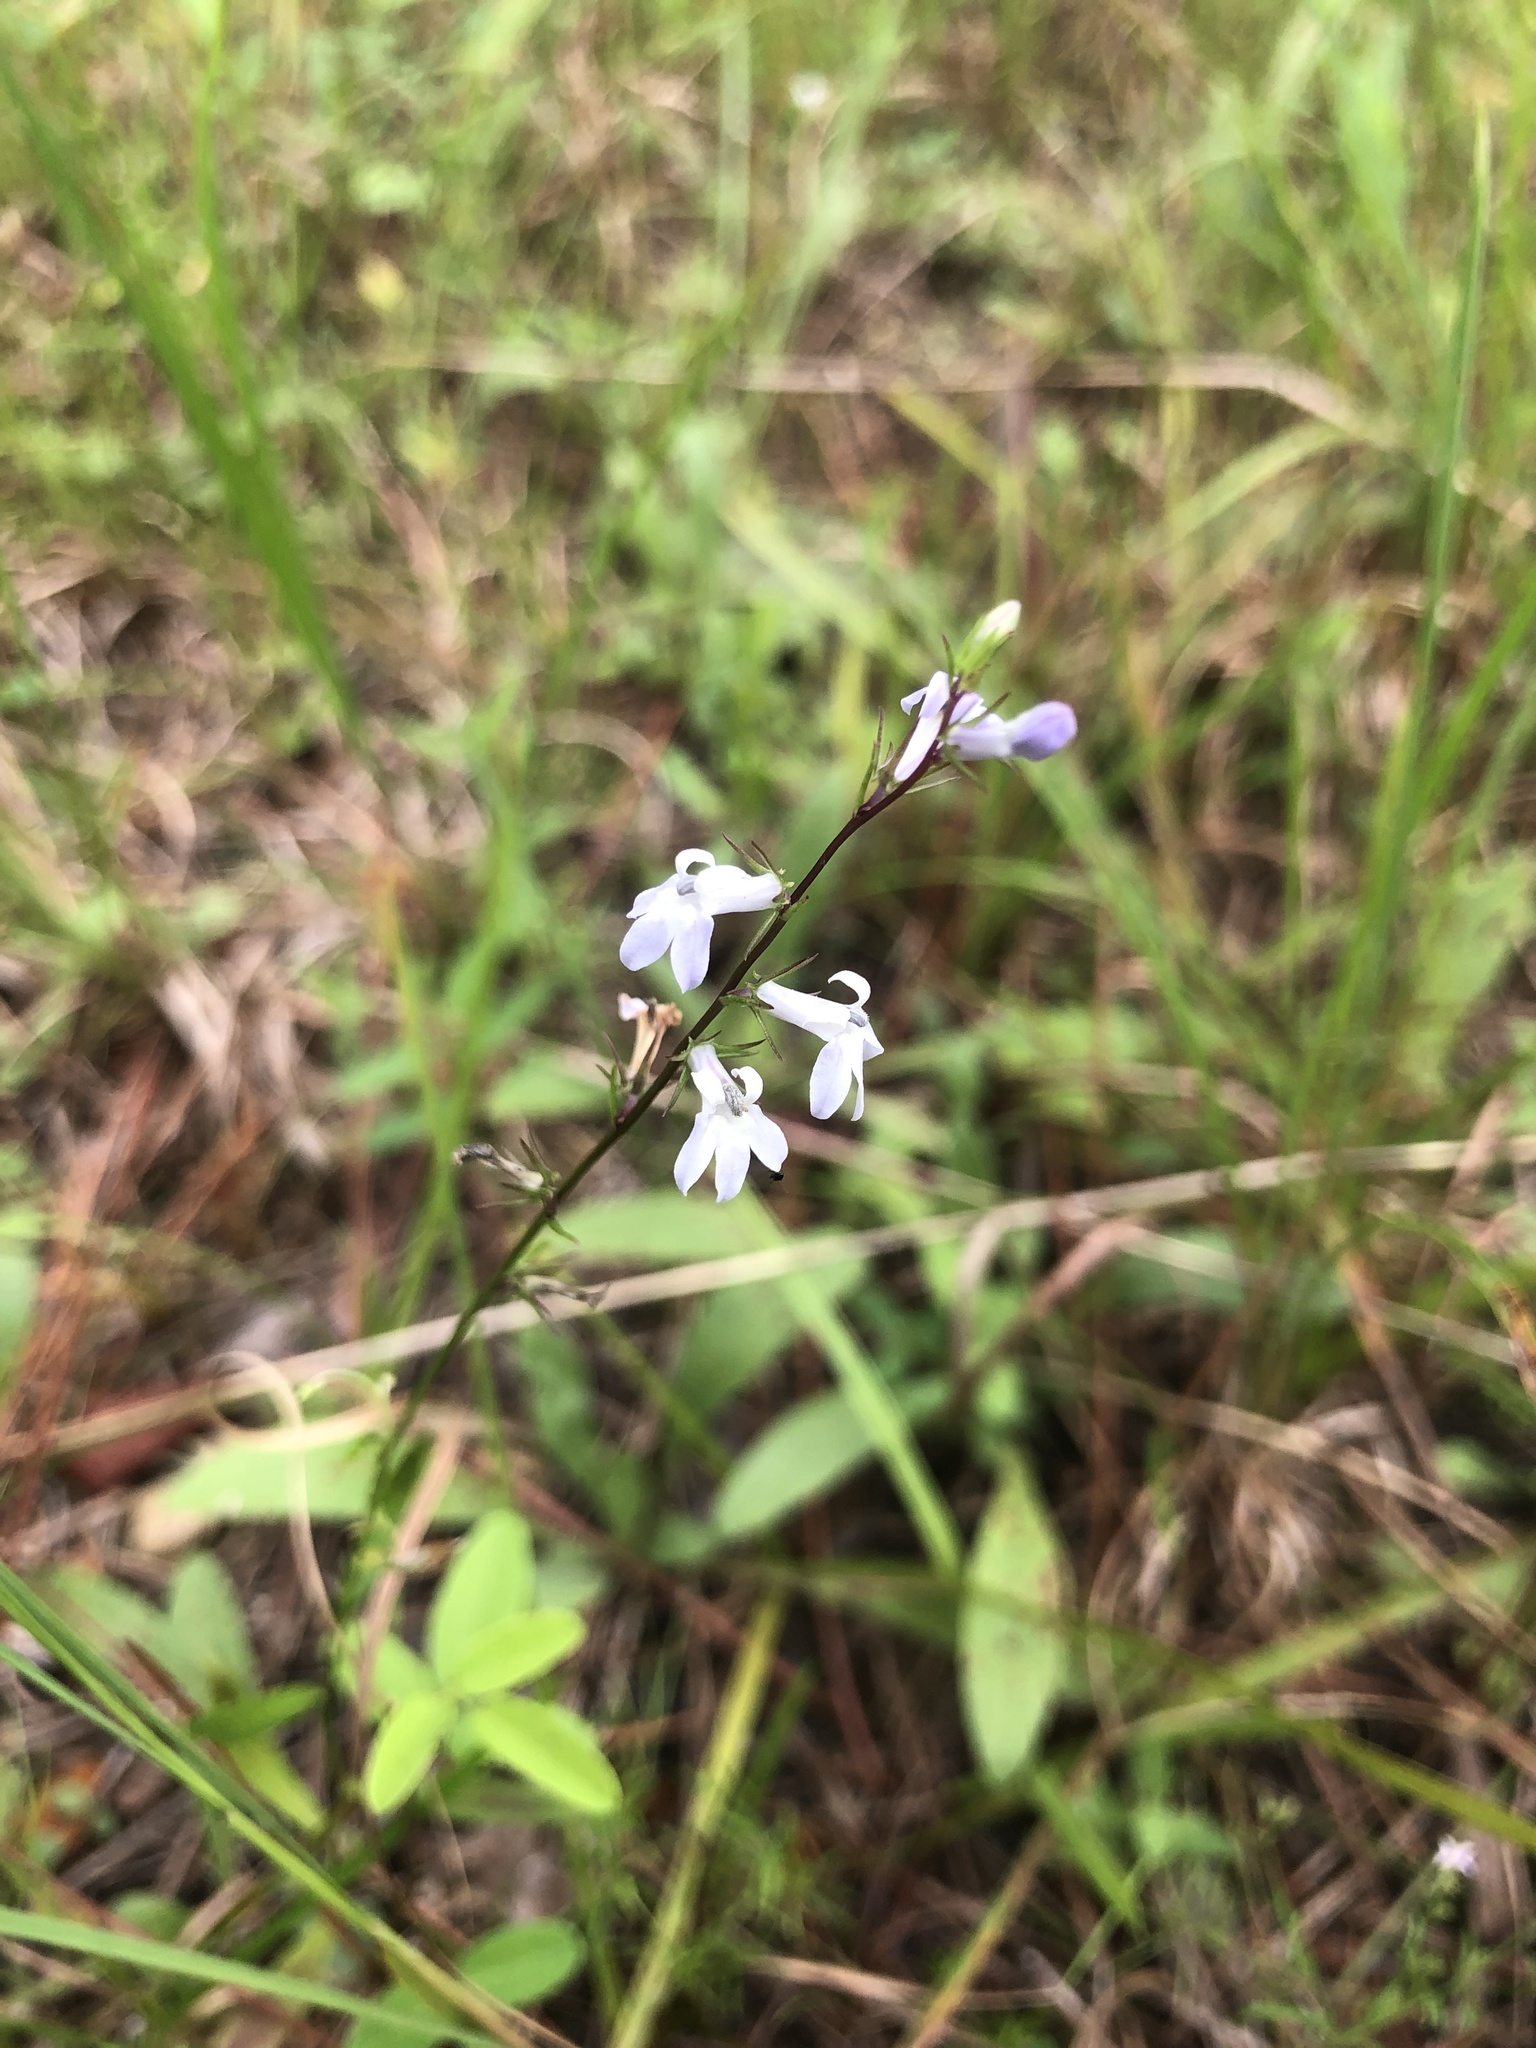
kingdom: Plantae
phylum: Tracheophyta
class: Magnoliopsida
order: Asterales
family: Campanulaceae
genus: Lobelia
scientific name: Lobelia spicata
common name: Pale-spike lobelia
